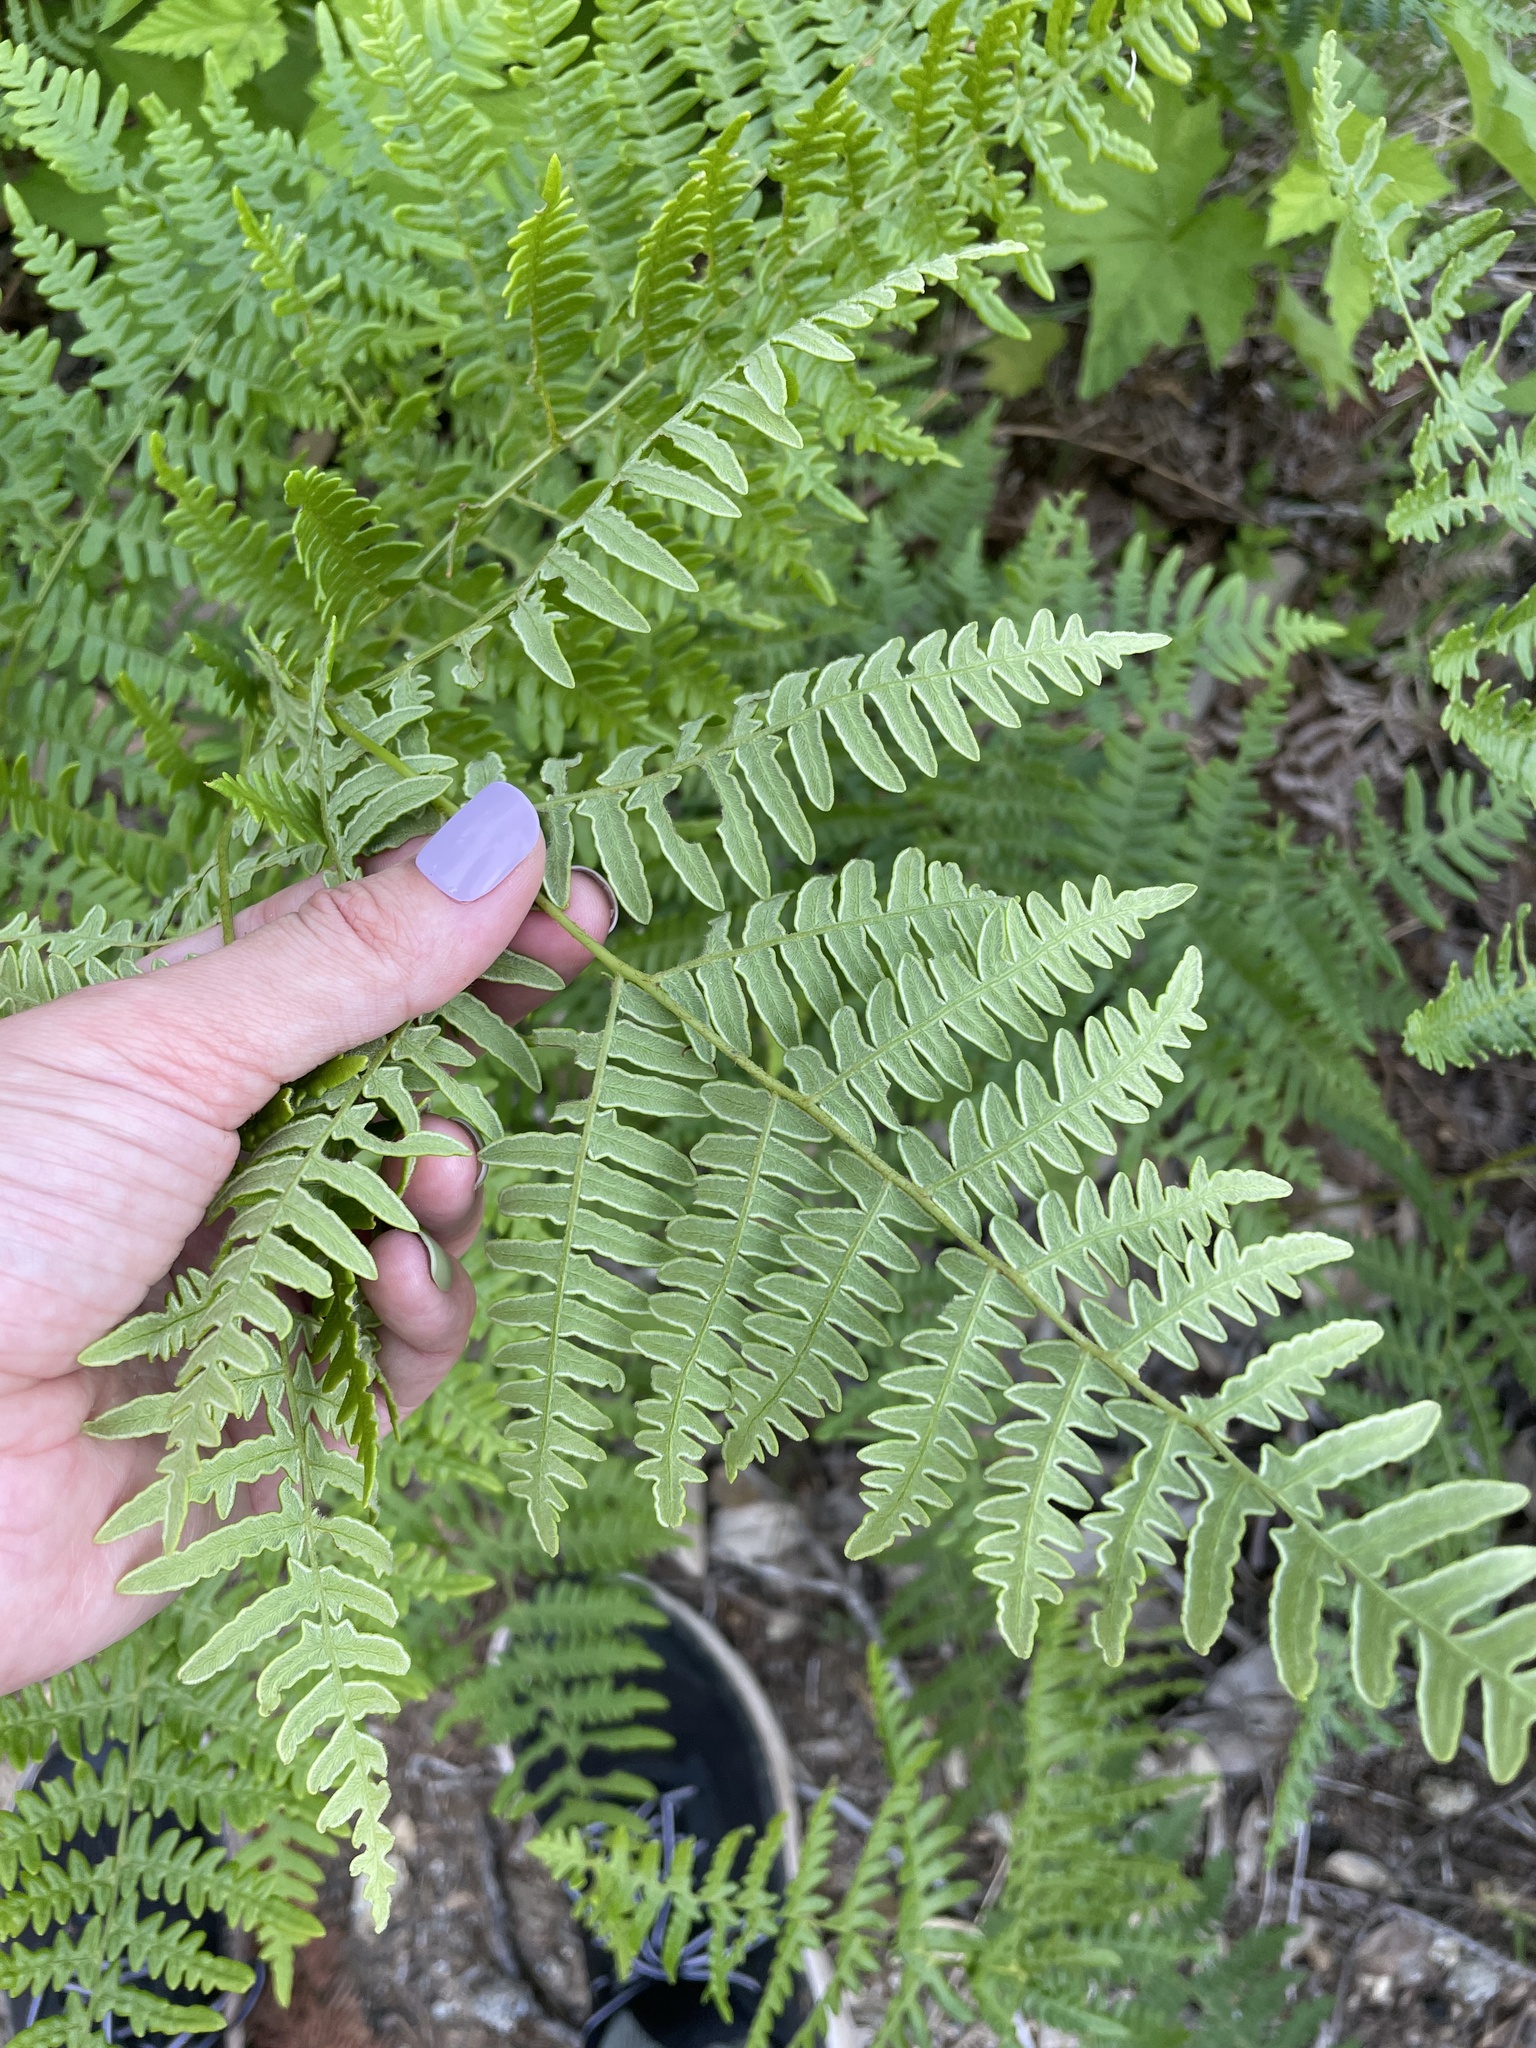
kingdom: Plantae
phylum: Tracheophyta
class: Polypodiopsida
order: Polypodiales
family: Dennstaedtiaceae
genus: Pteridium
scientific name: Pteridium aquilinum
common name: Bracken
